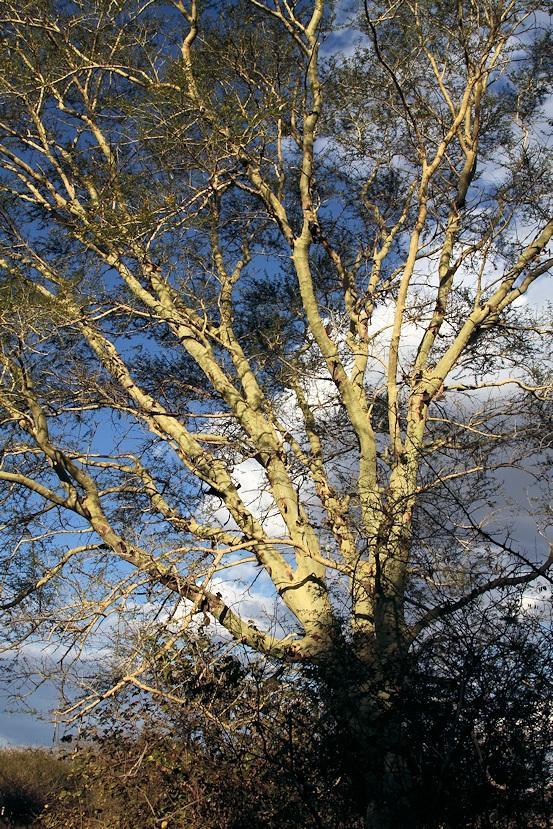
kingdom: Plantae
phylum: Tracheophyta
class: Magnoliopsida
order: Fabales
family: Fabaceae
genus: Vachellia
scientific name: Vachellia xanthophloea
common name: Fever tree
